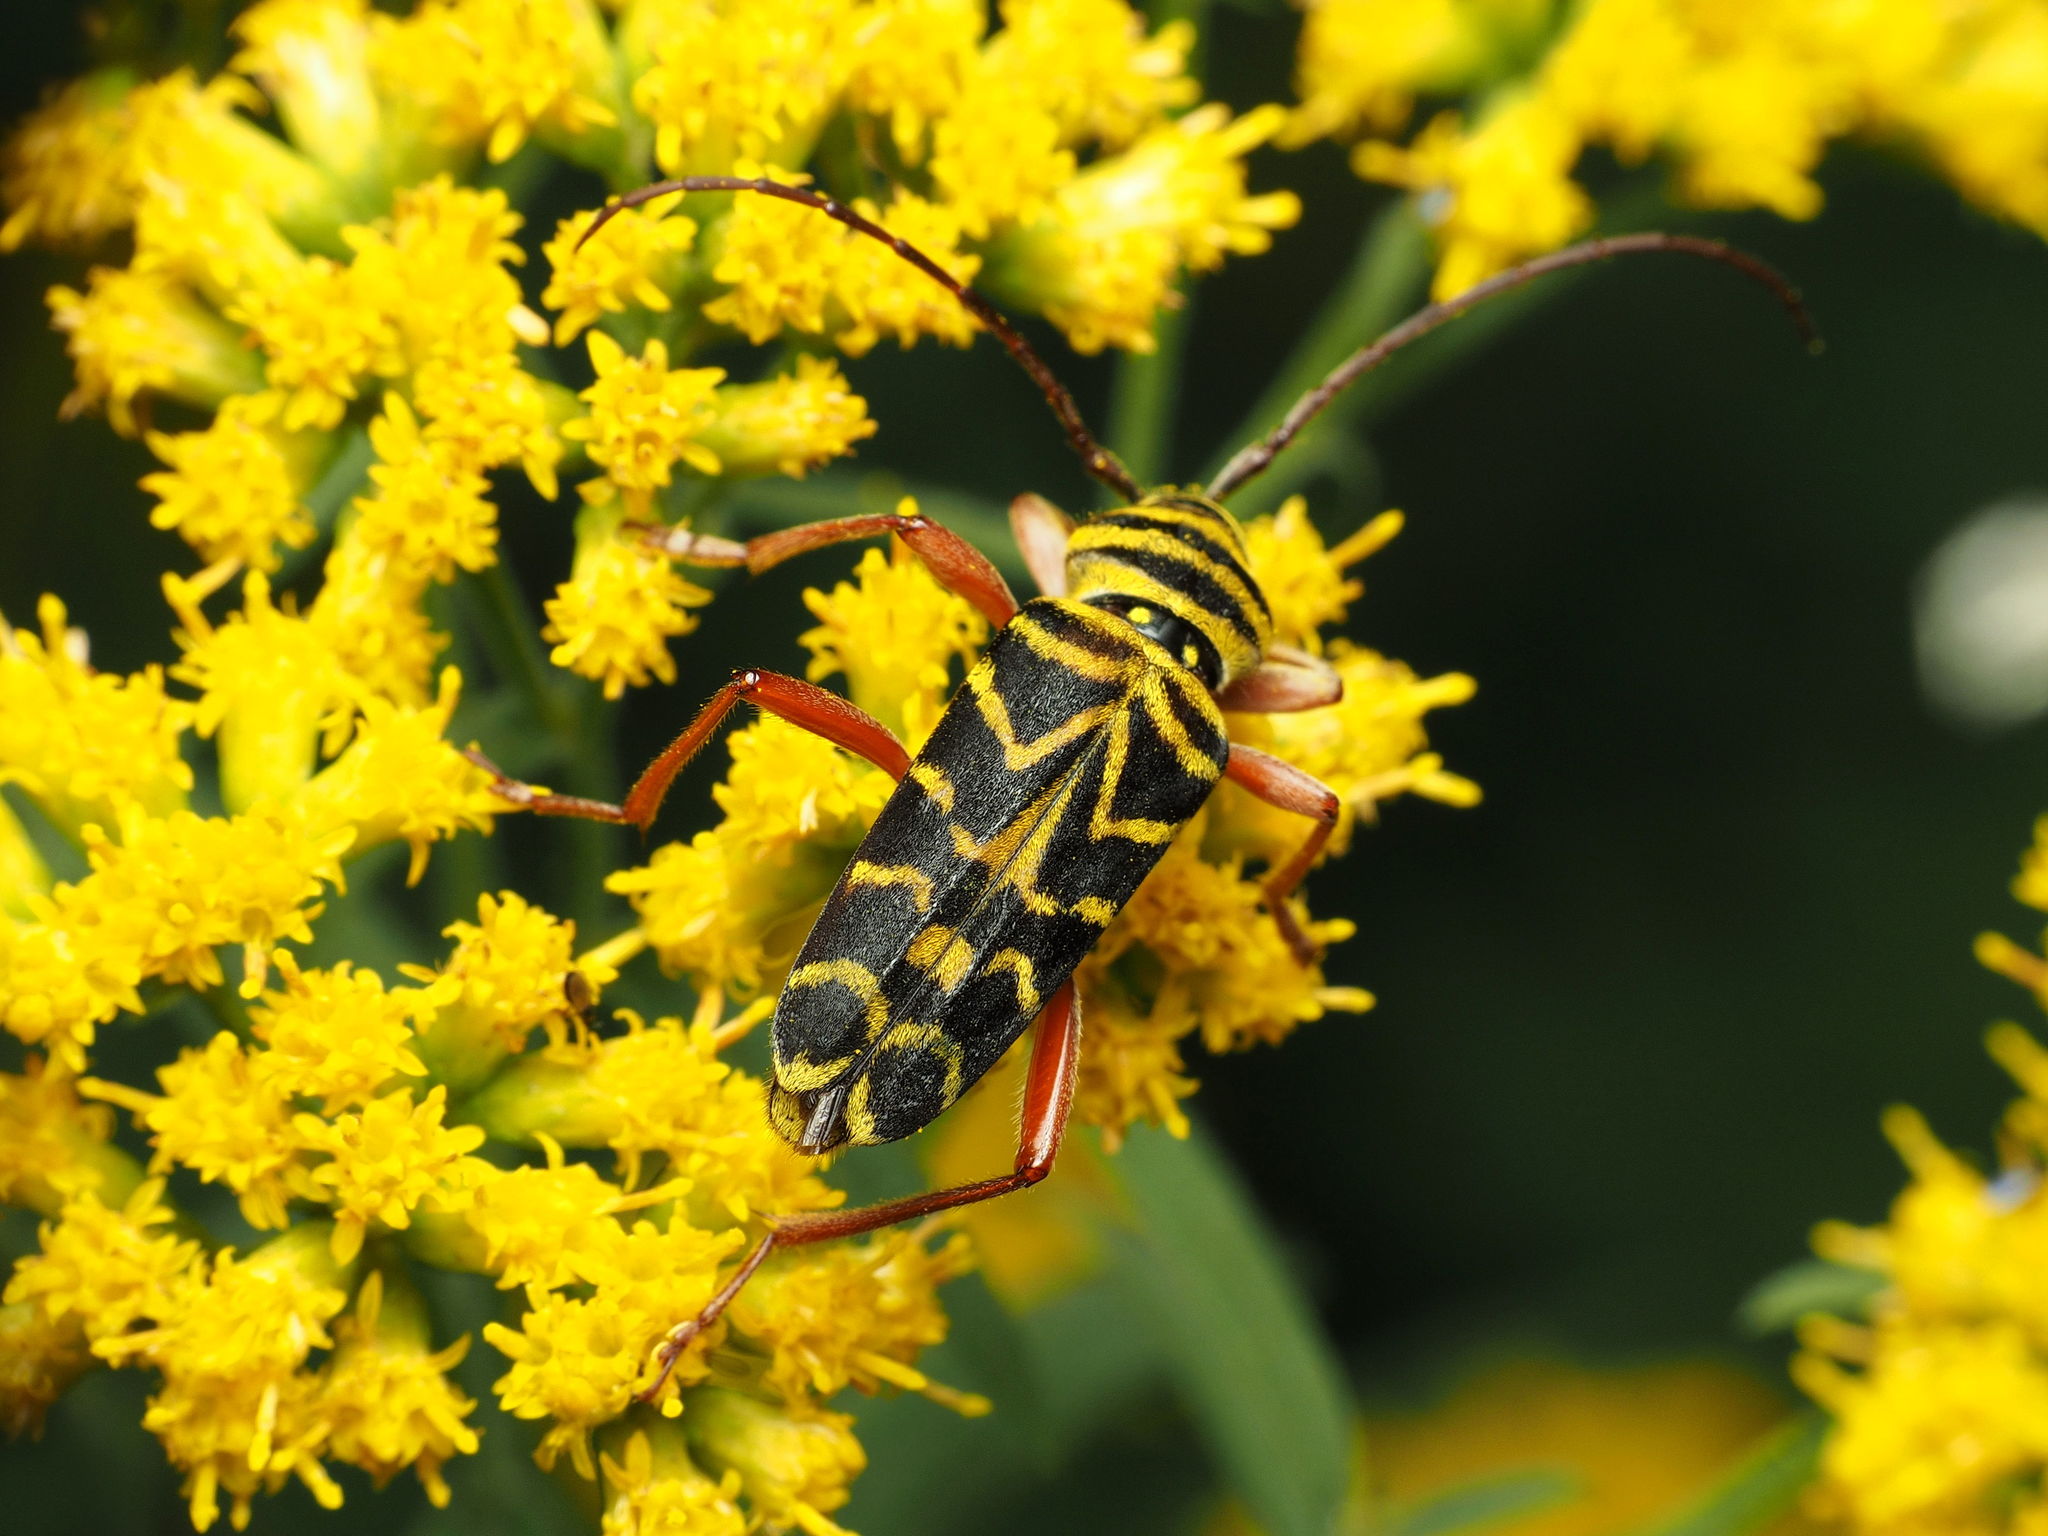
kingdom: Animalia
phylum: Arthropoda
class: Insecta
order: Coleoptera
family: Cerambycidae
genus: Megacyllene
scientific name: Megacyllene robiniae
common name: Locust borer
